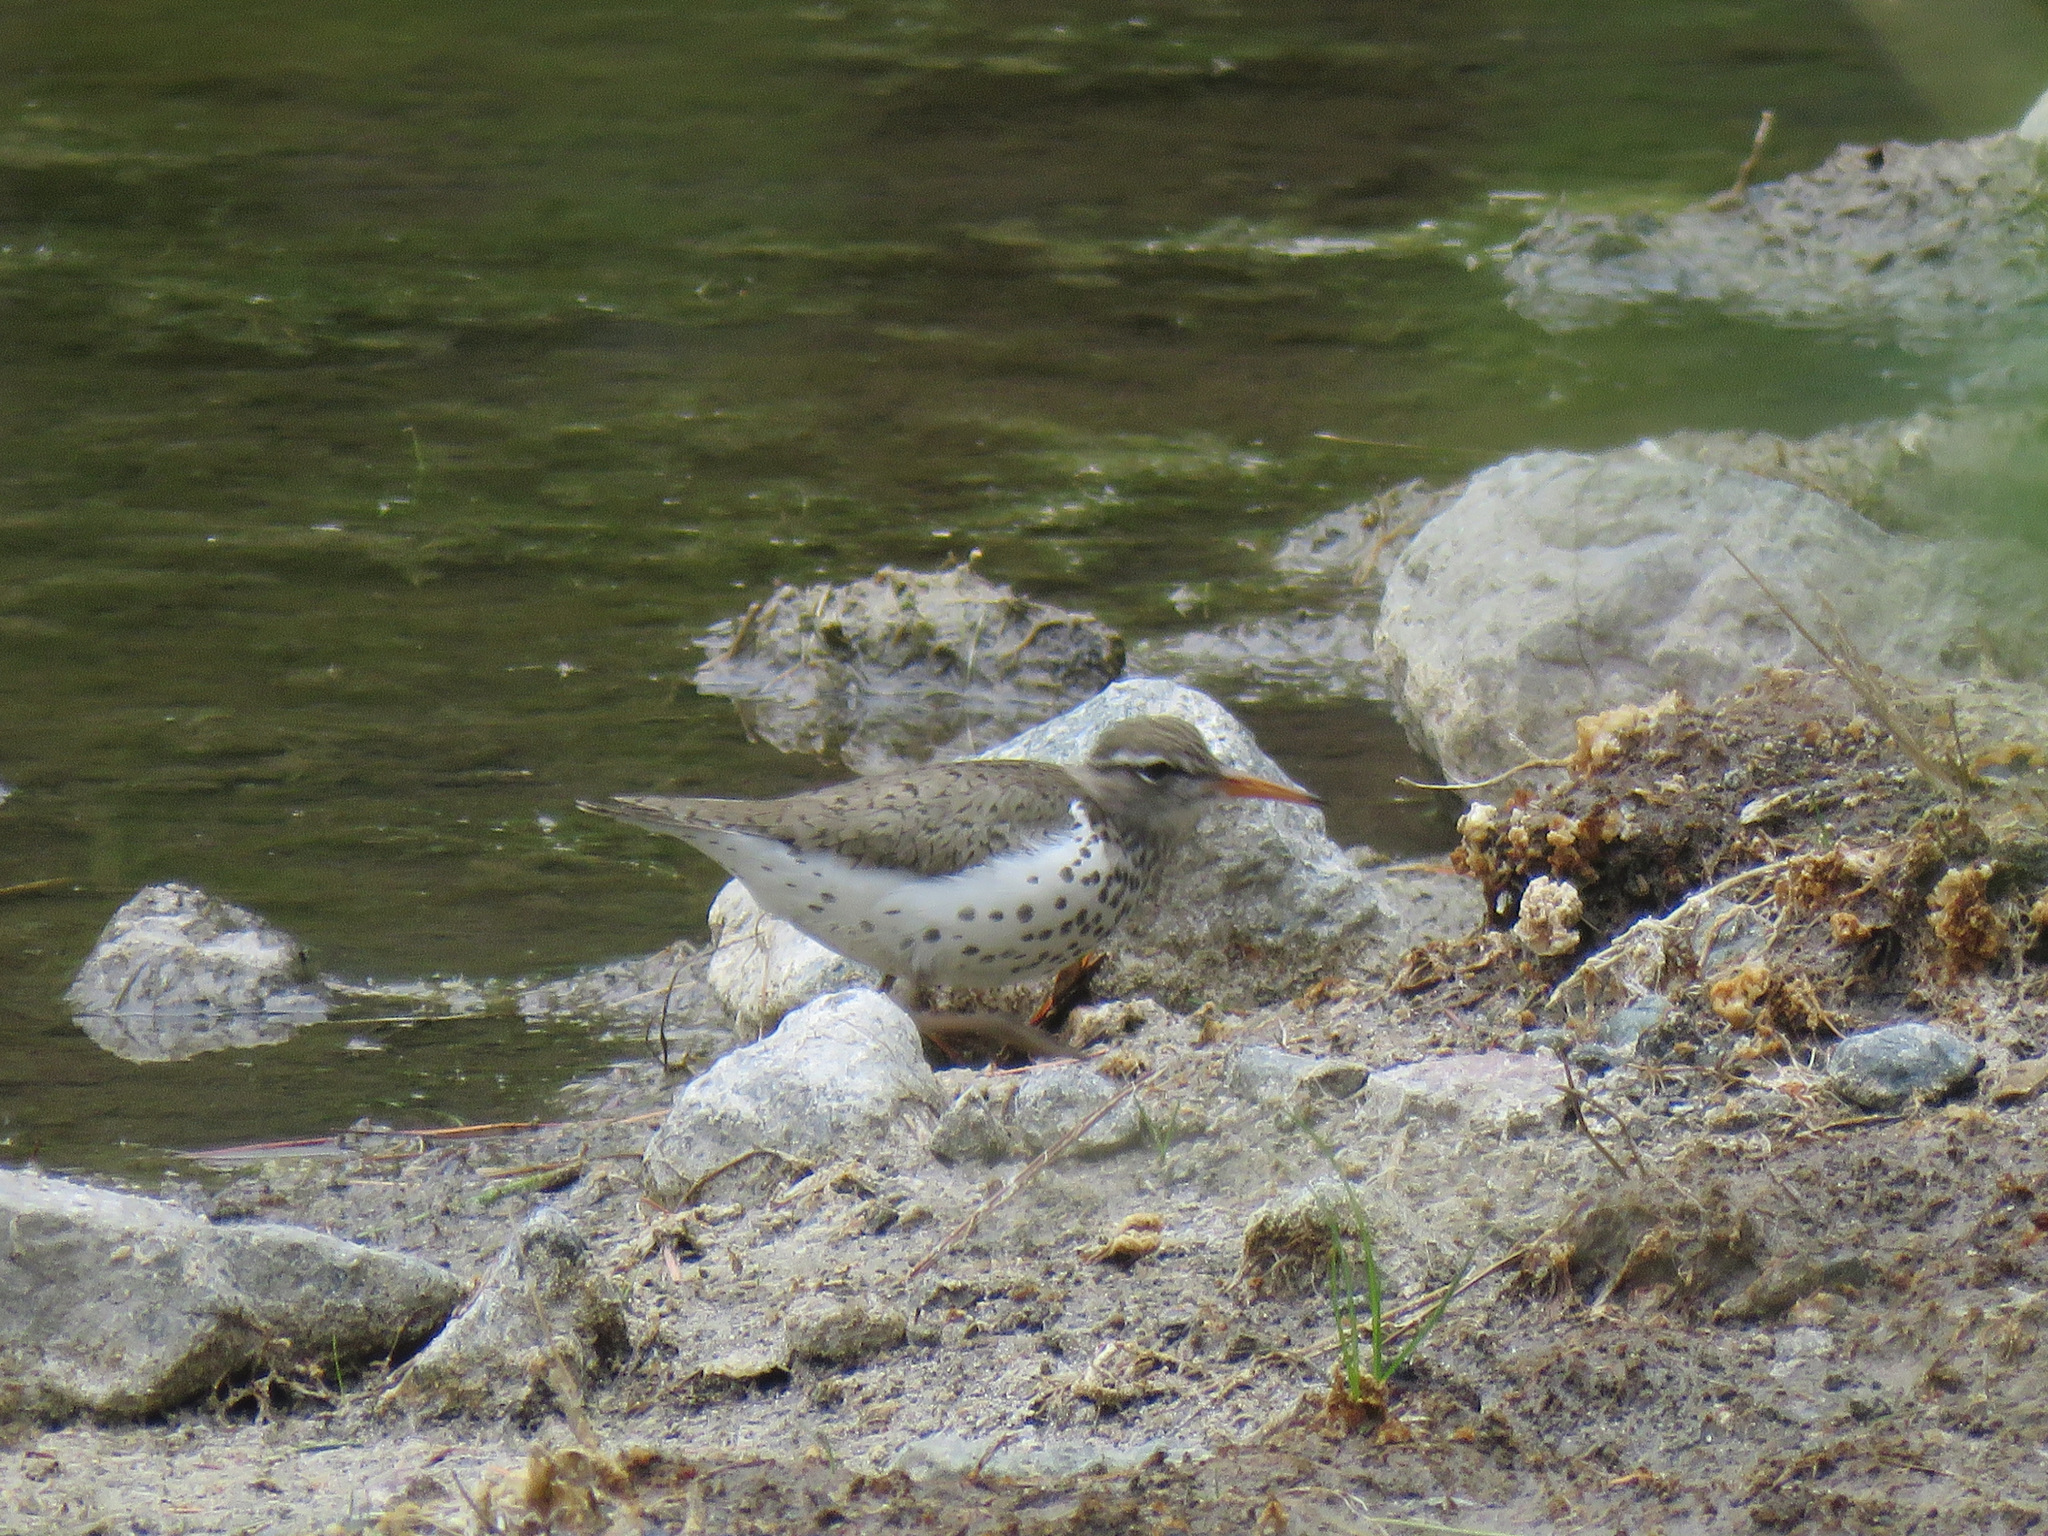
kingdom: Animalia
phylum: Chordata
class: Aves
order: Charadriiformes
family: Scolopacidae
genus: Actitis
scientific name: Actitis macularius
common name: Spotted sandpiper
